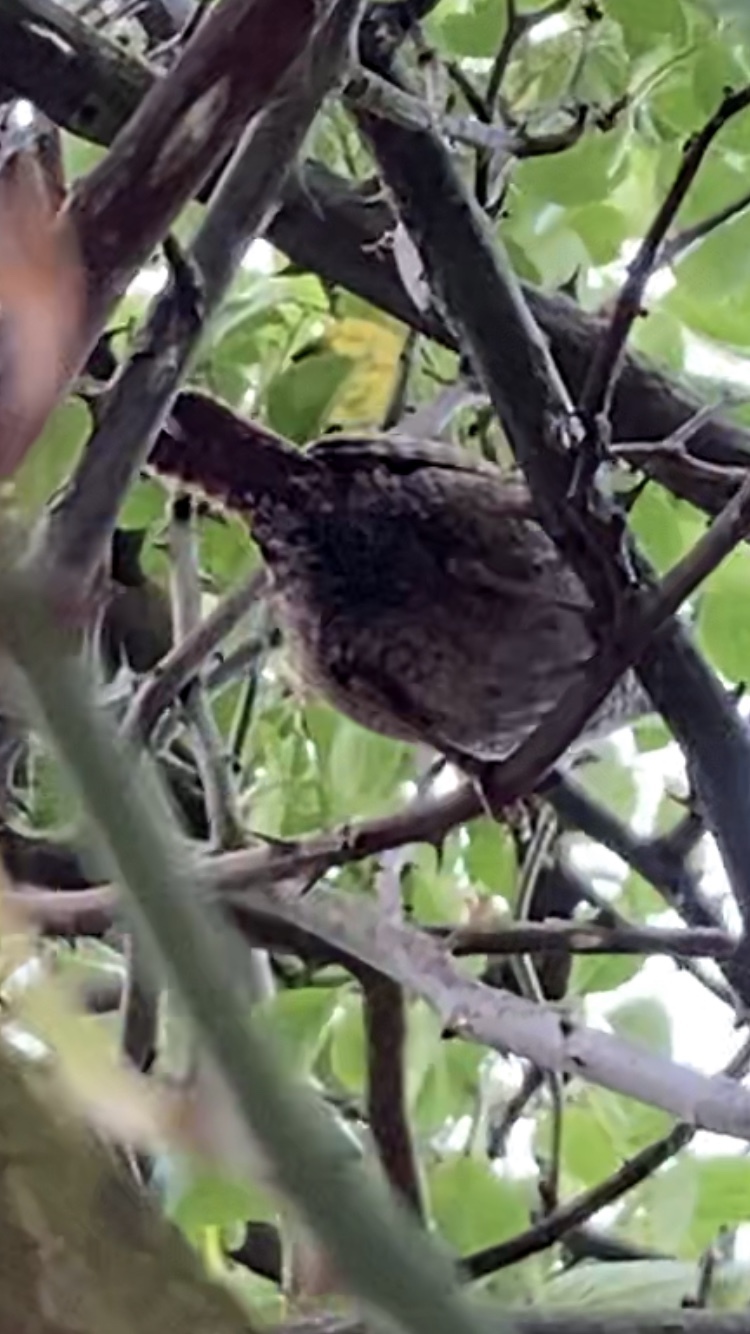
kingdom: Animalia
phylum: Chordata
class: Aves
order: Passeriformes
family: Troglodytidae
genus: Troglodytes
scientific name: Troglodytes troglodytes
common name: Eurasian wren
